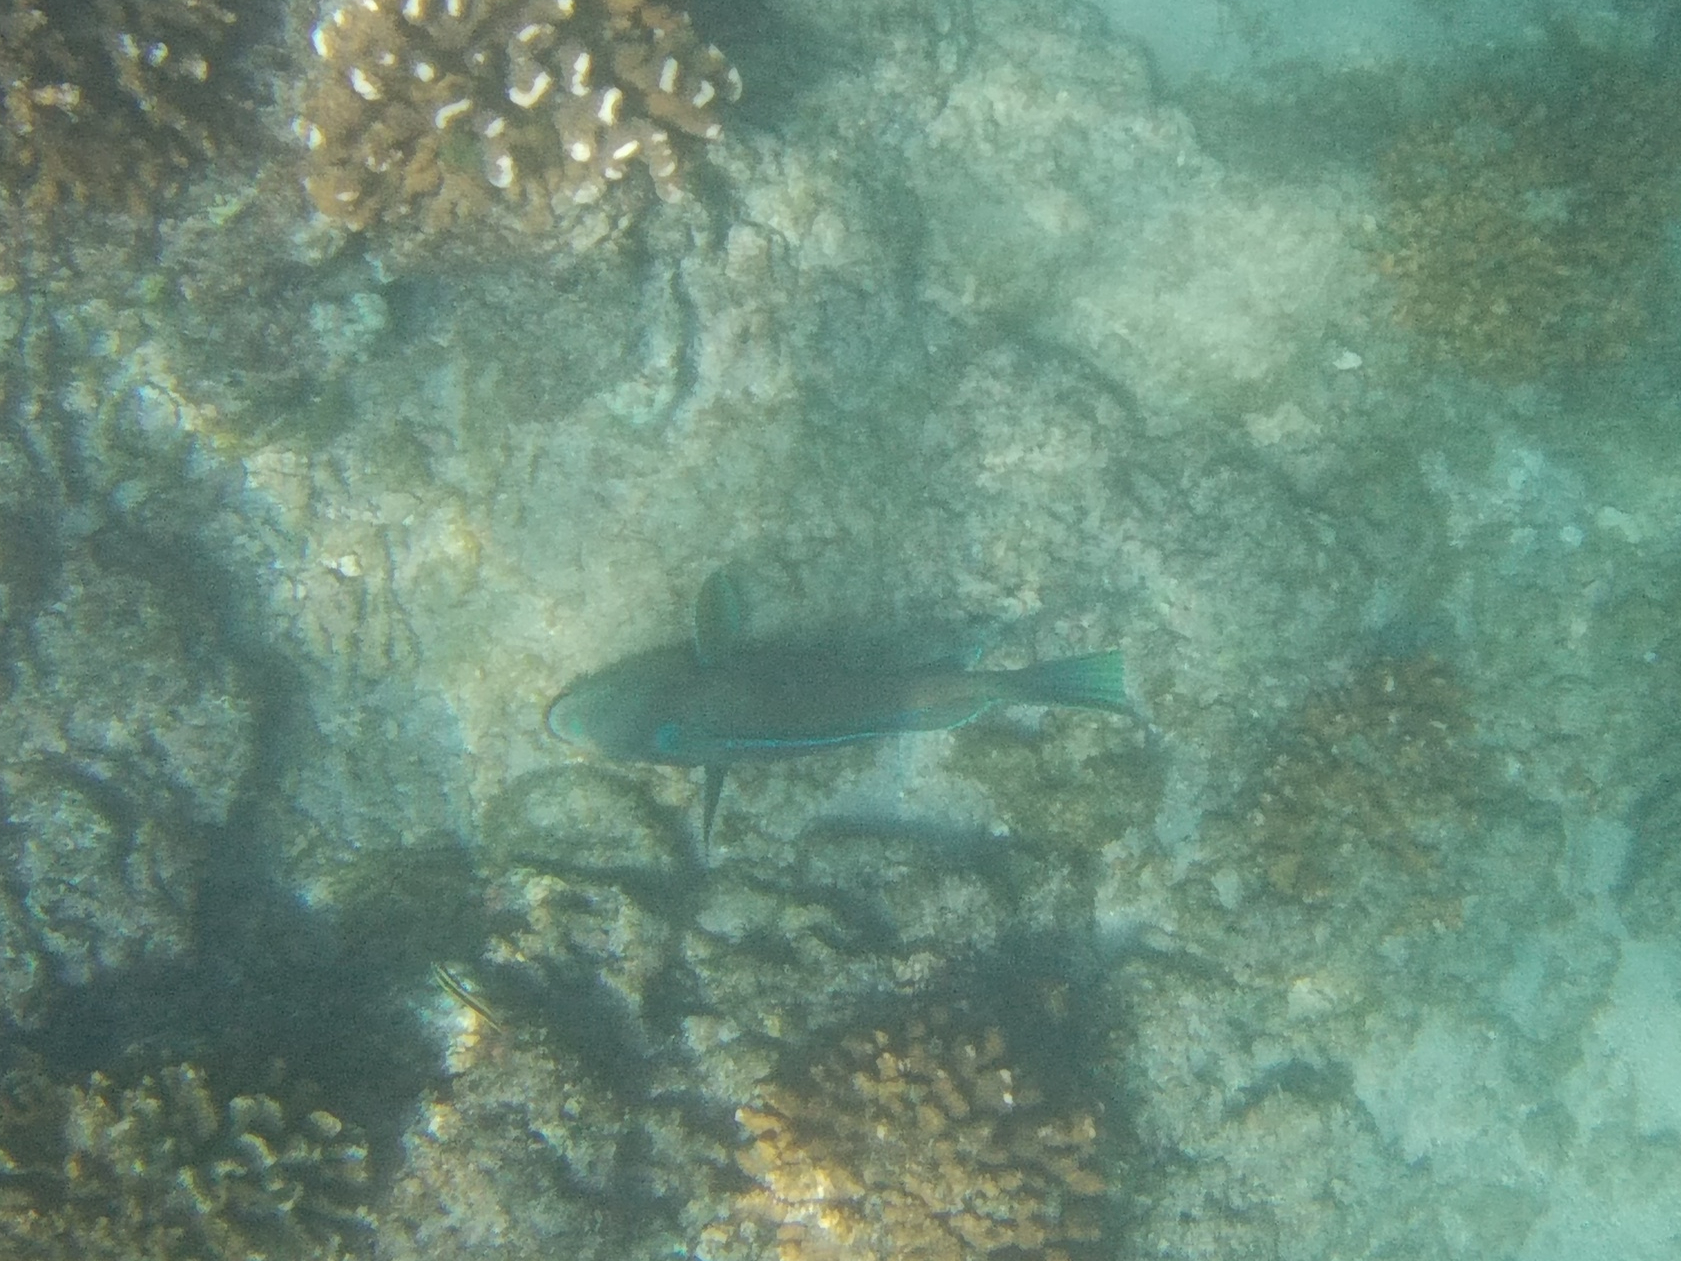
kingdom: Animalia
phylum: Chordata
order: Perciformes
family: Scaridae
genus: Scarus
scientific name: Scarus perrico
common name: Bumphead parrotfish
